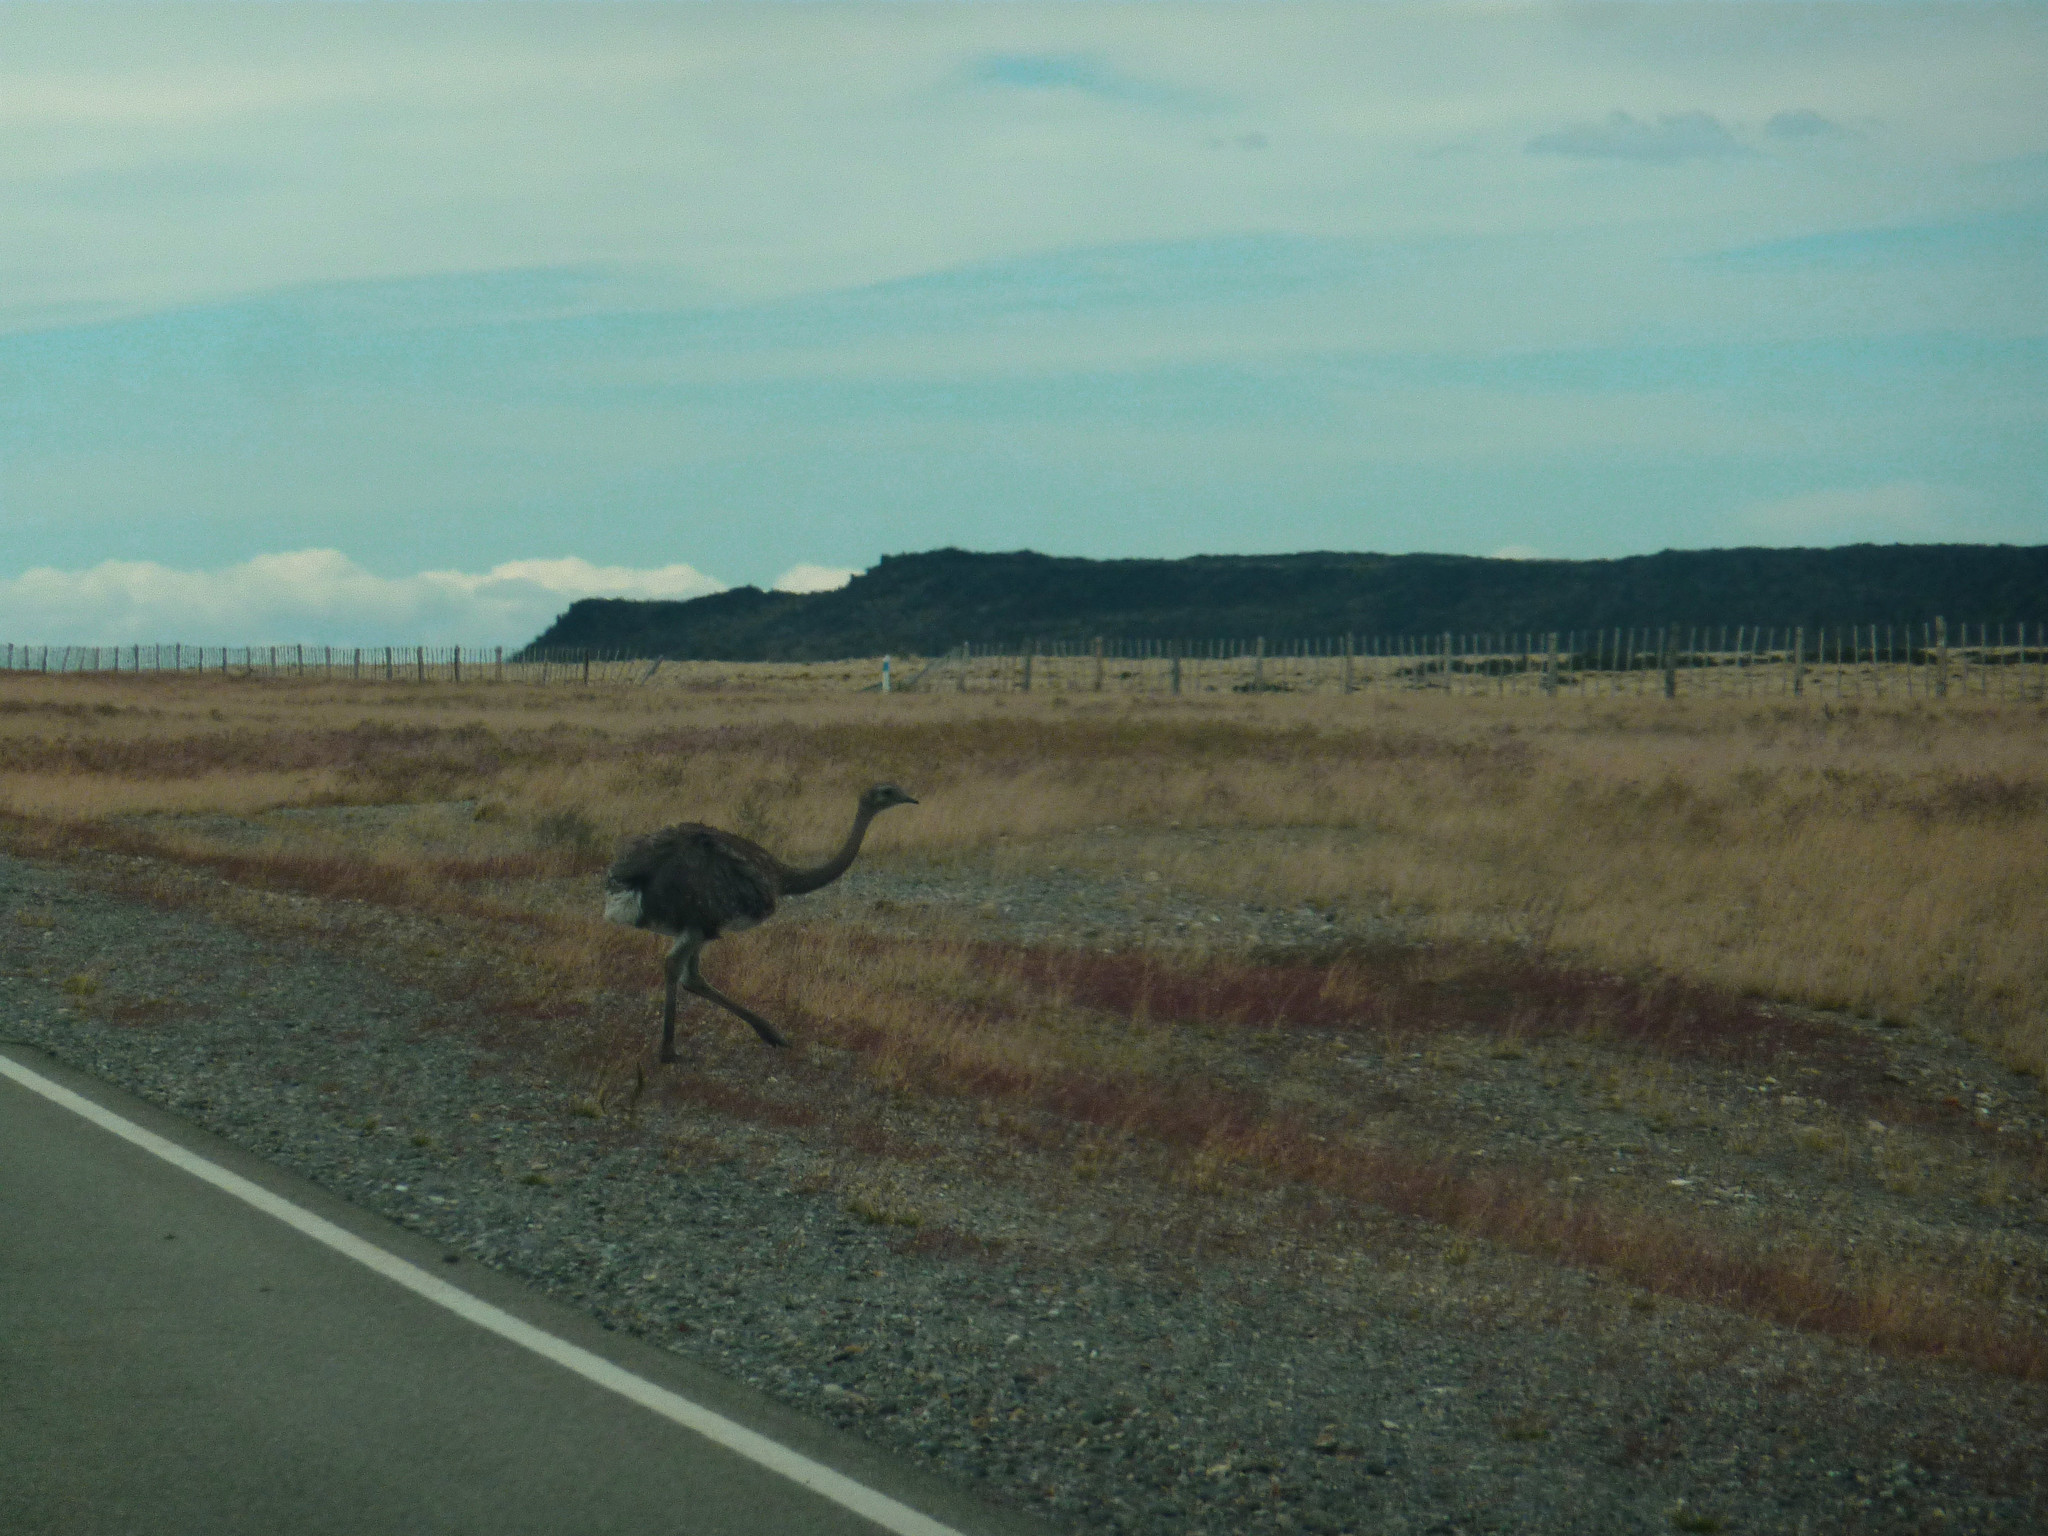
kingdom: Animalia
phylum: Chordata
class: Aves
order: Rheiformes
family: Rheidae
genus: Rhea
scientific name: Rhea pennata
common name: Lesser rhea
